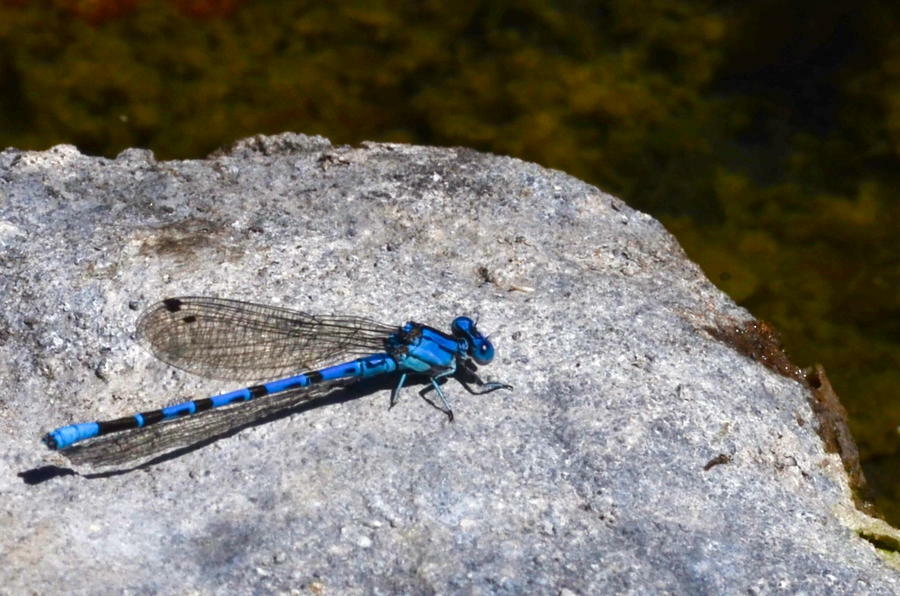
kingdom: Animalia
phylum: Arthropoda
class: Insecta
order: Odonata
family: Coenagrionidae
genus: Argia
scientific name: Argia vivida
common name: Vivid dancer
